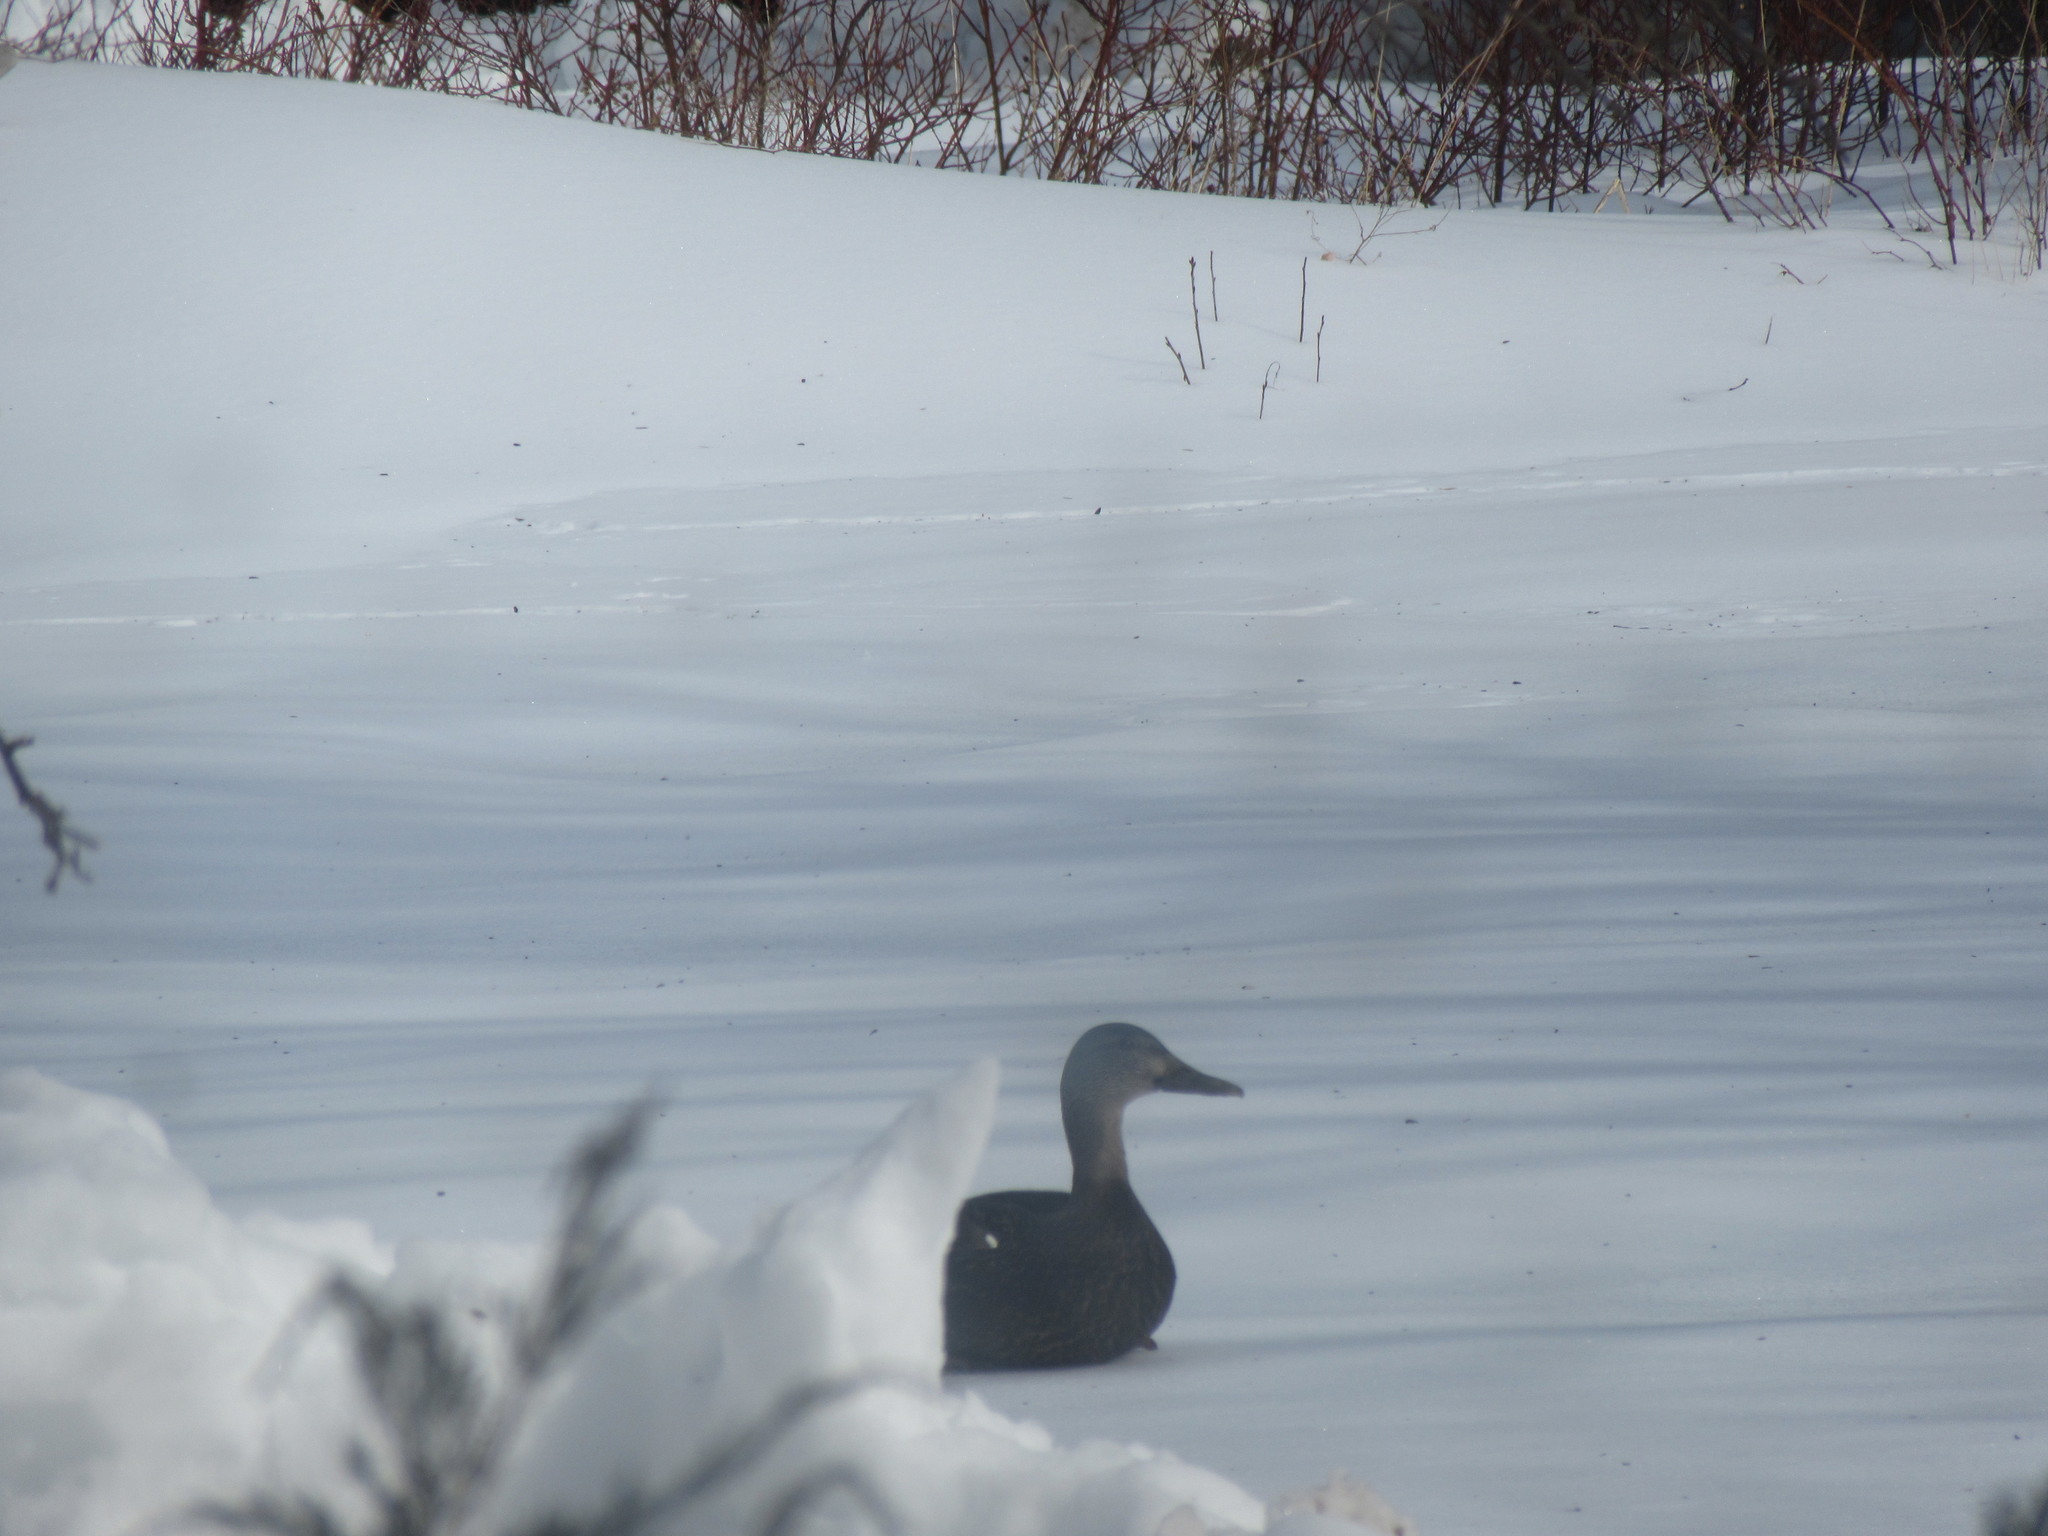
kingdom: Animalia
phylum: Chordata
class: Aves
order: Anseriformes
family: Anatidae
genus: Anas
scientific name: Anas rubripes
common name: American black duck
